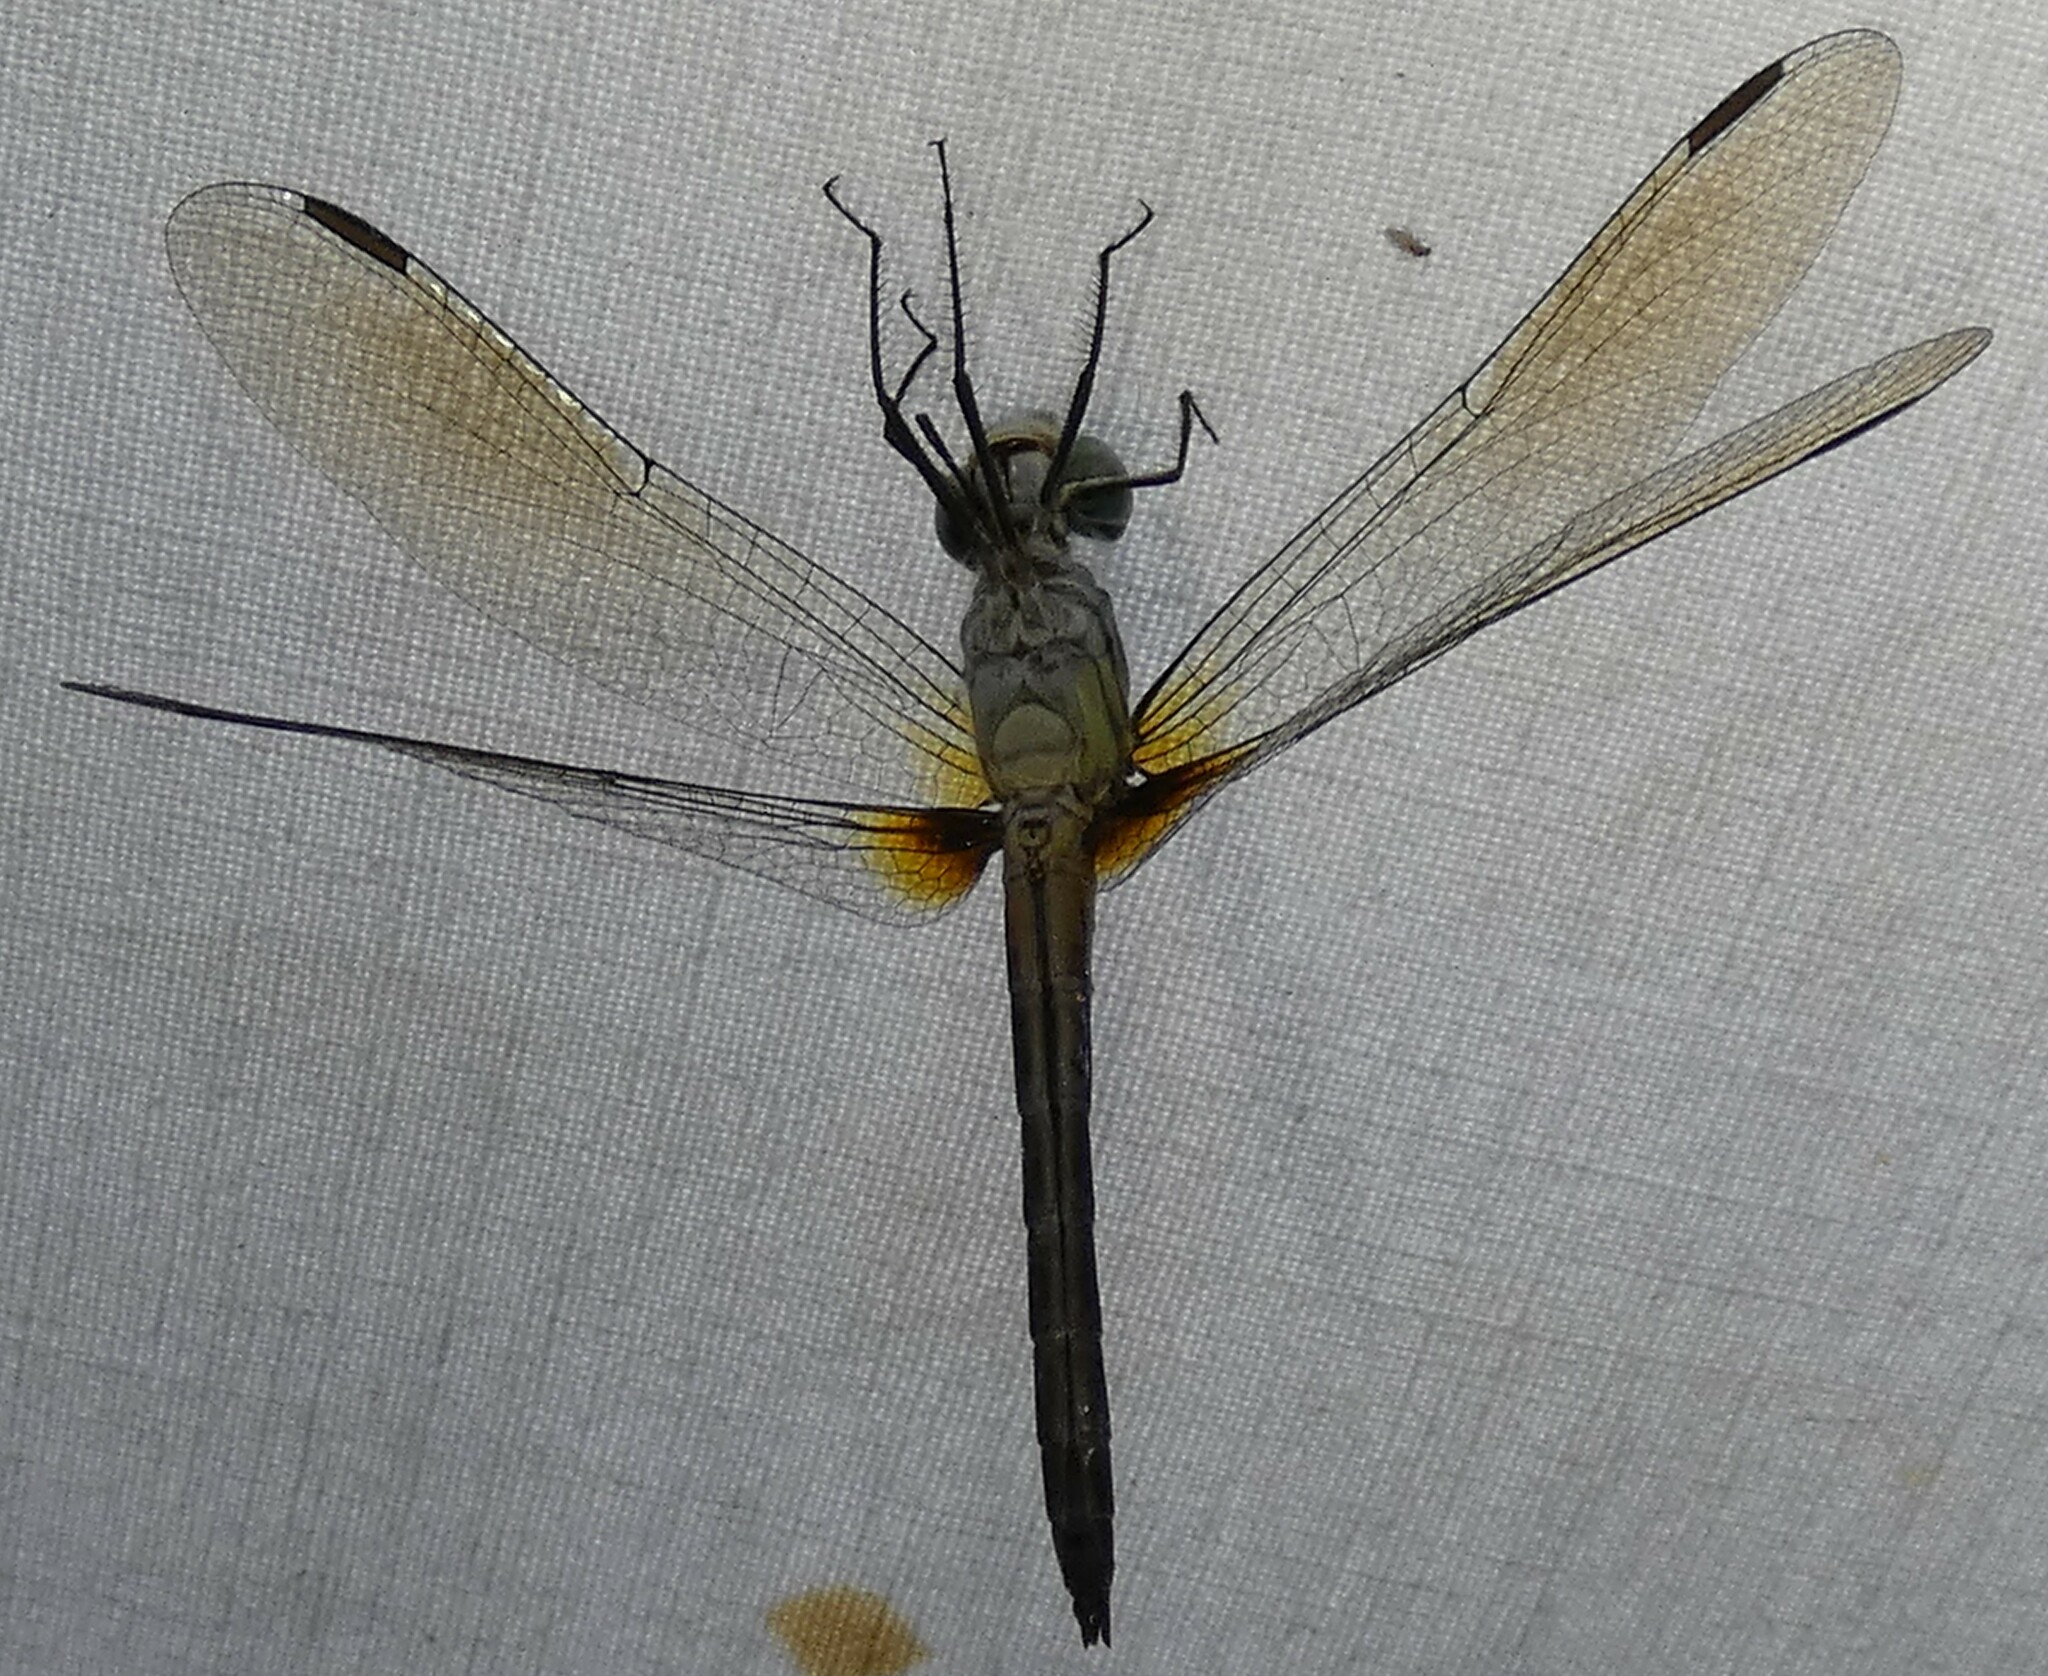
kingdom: Animalia
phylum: Arthropoda
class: Insecta
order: Odonata
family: Libellulidae
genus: Pachydiplax
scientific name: Pachydiplax longipennis
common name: Blue dasher
